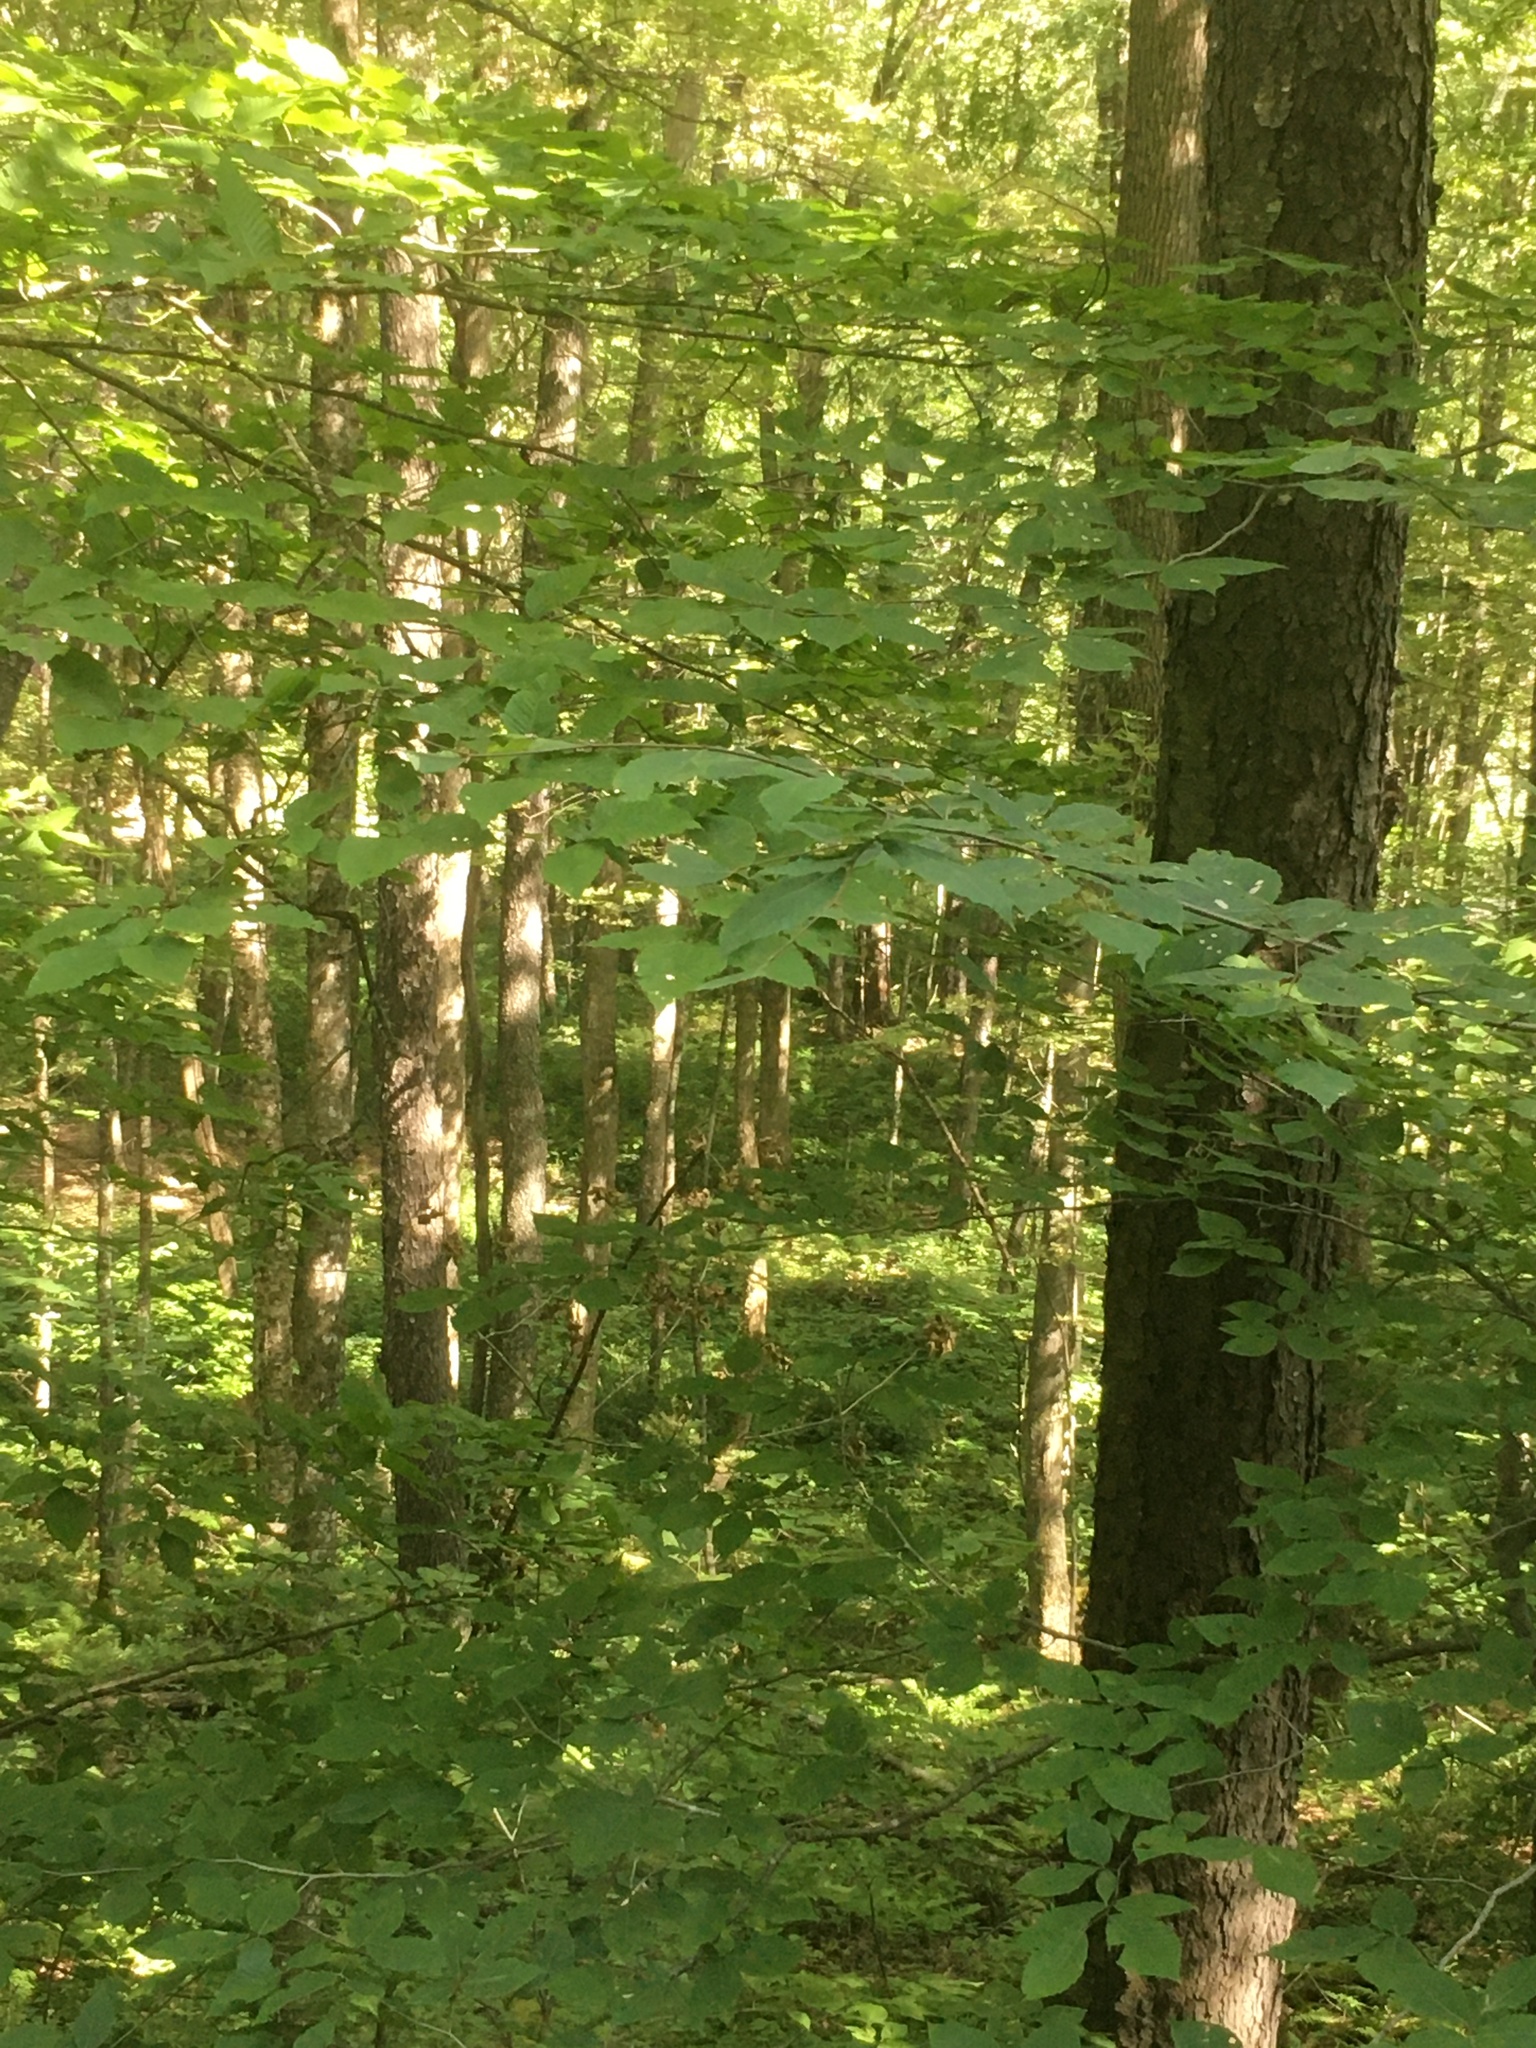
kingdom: Plantae
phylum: Tracheophyta
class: Magnoliopsida
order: Rosales
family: Rosaceae
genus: Prunus
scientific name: Prunus serotina
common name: Black cherry
